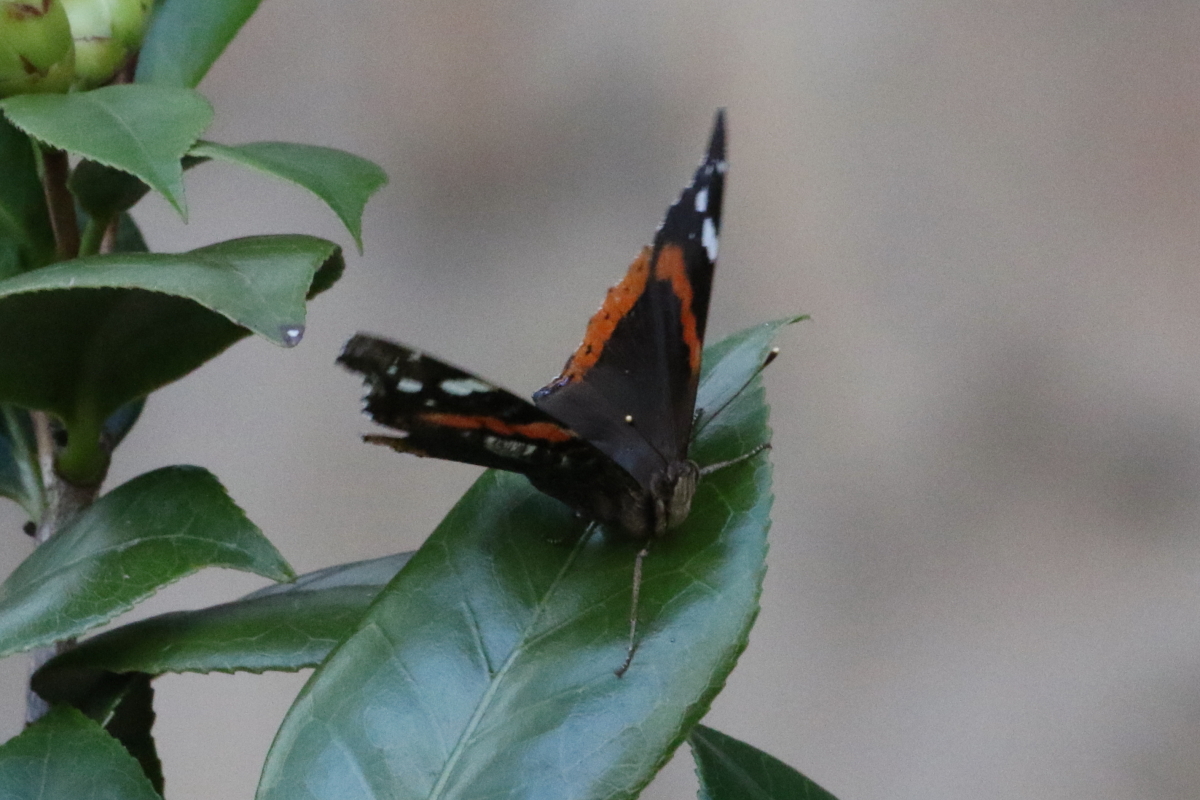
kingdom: Animalia
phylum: Arthropoda
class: Insecta
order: Lepidoptera
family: Nymphalidae
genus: Vanessa
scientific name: Vanessa atalanta
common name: Red admiral
